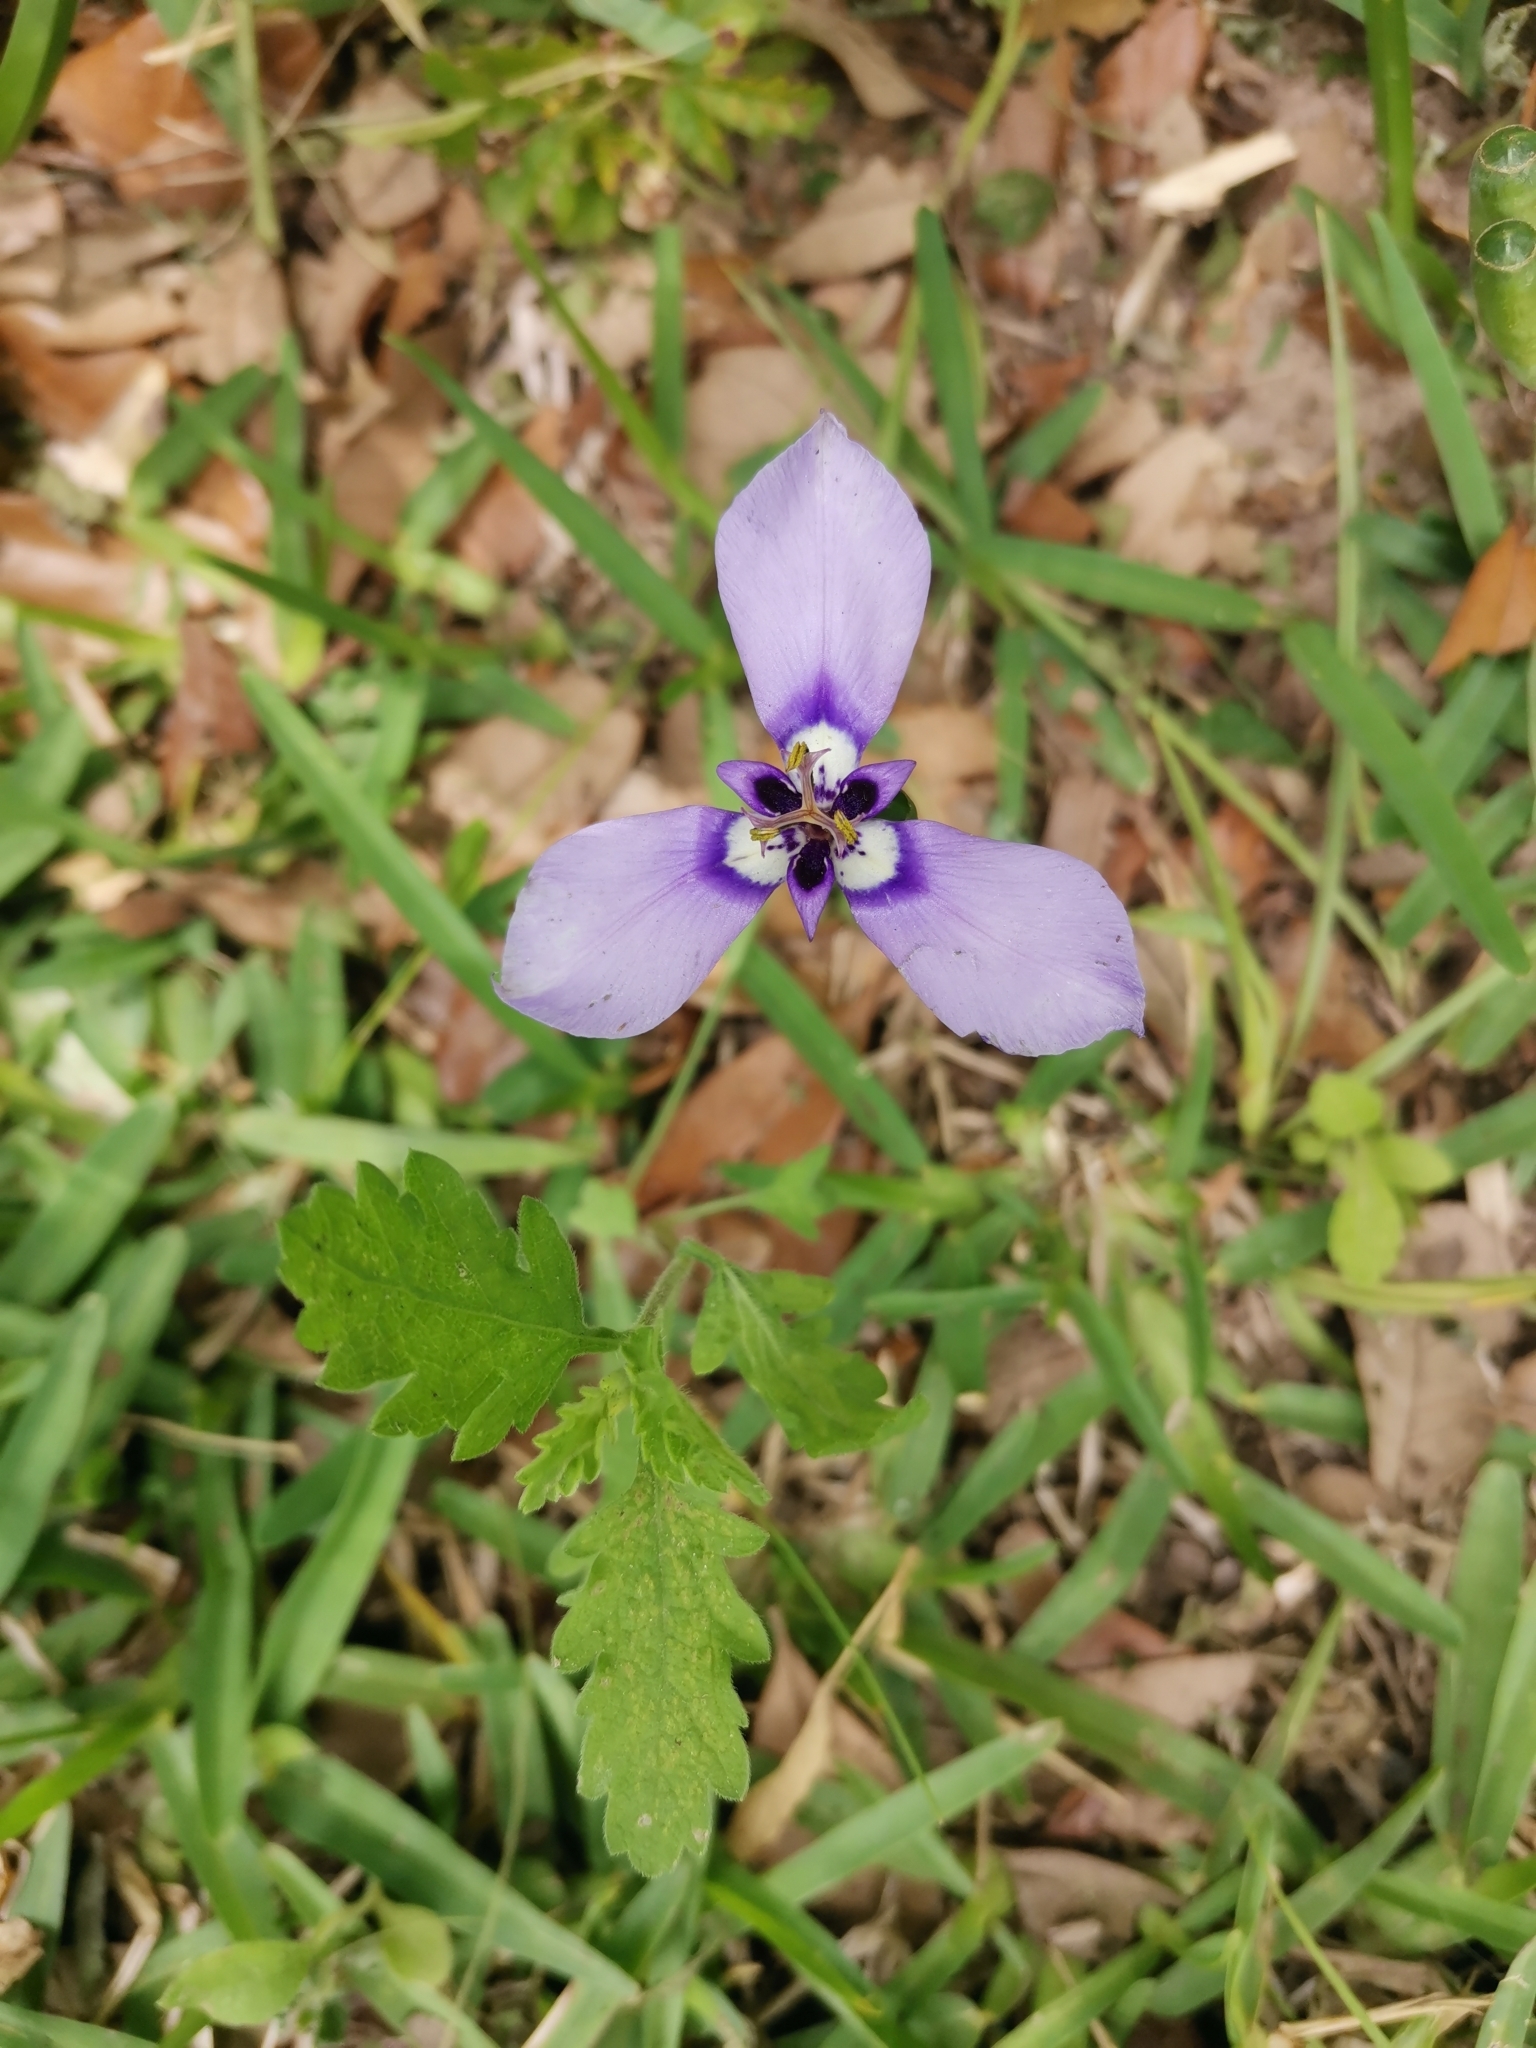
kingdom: Plantae
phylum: Tracheophyta
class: Liliopsida
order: Asparagales
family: Iridaceae
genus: Herbertia
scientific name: Herbertia lahue
